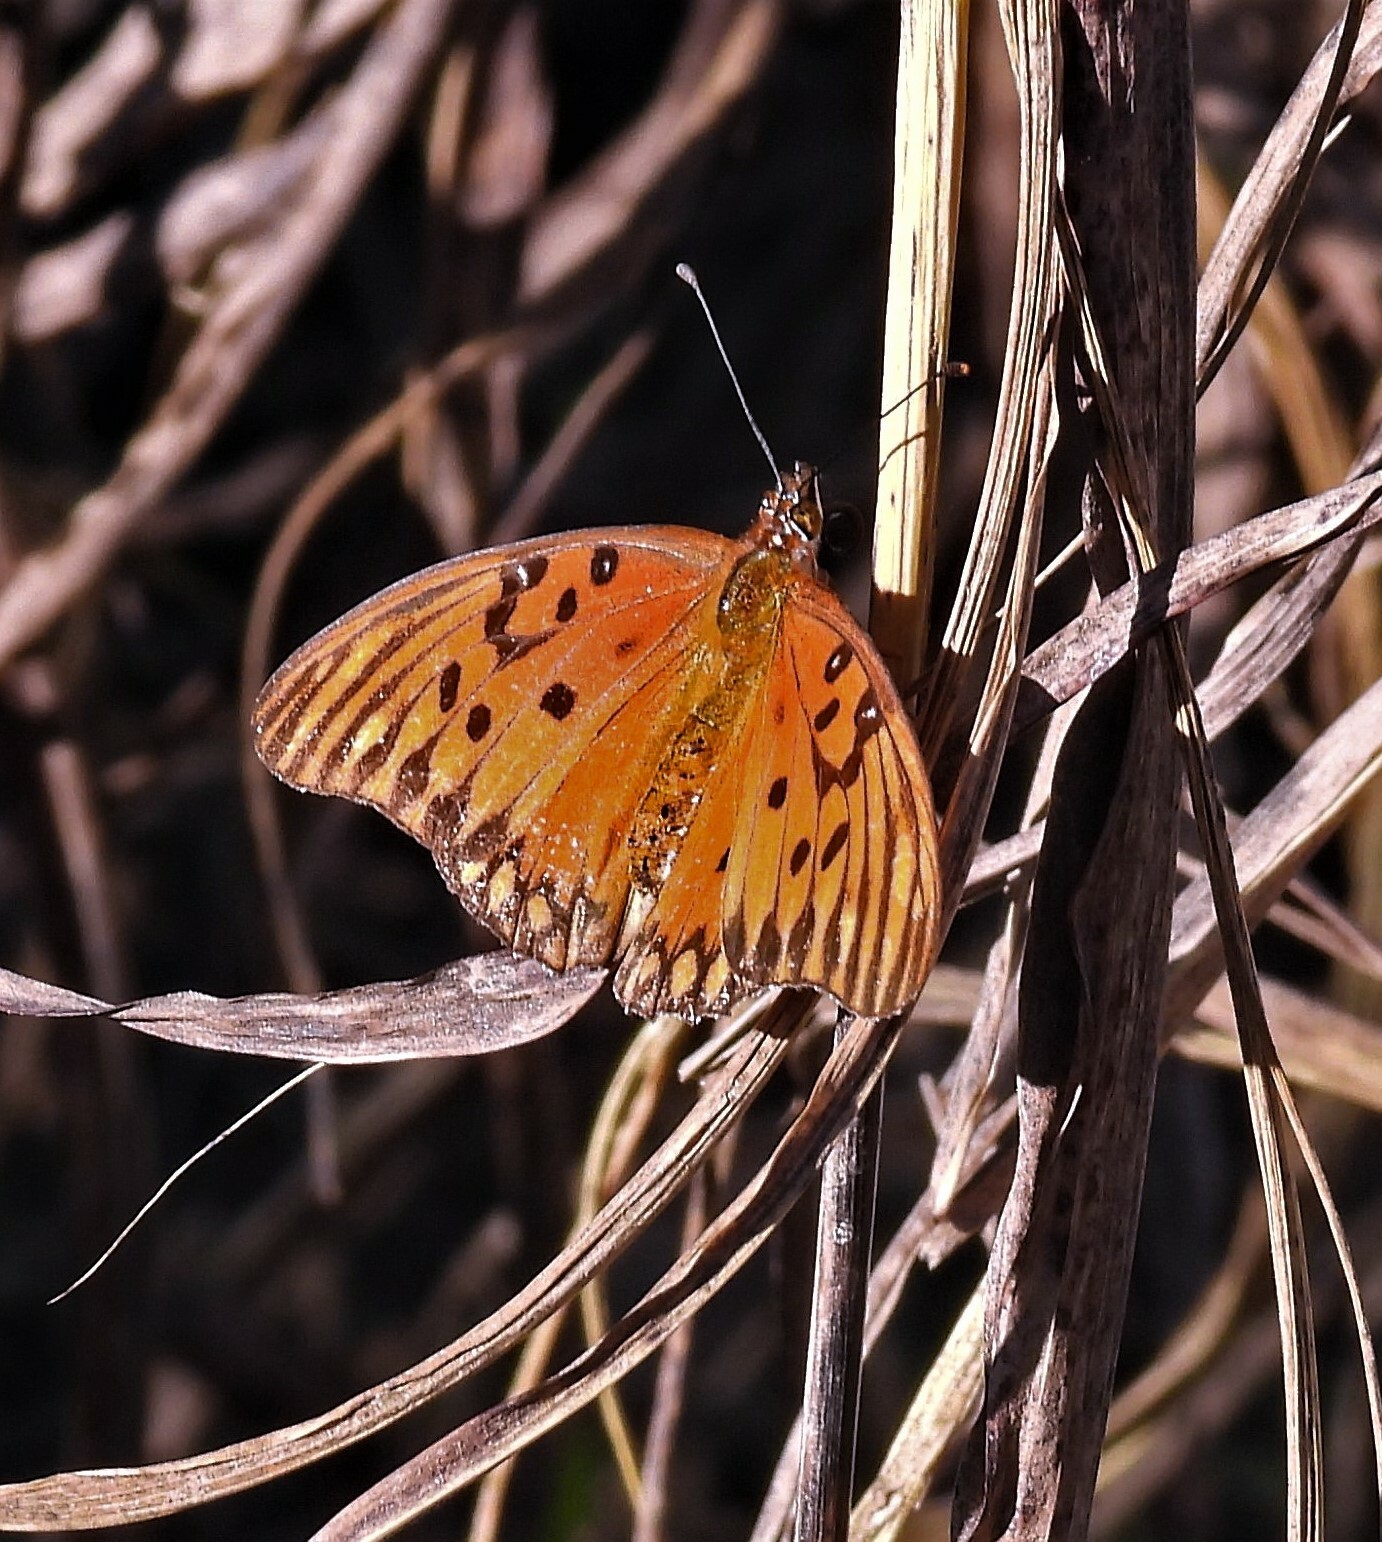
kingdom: Animalia
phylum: Arthropoda
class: Insecta
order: Lepidoptera
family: Nymphalidae
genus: Dione
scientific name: Dione vanillae
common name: Gulf fritillary
